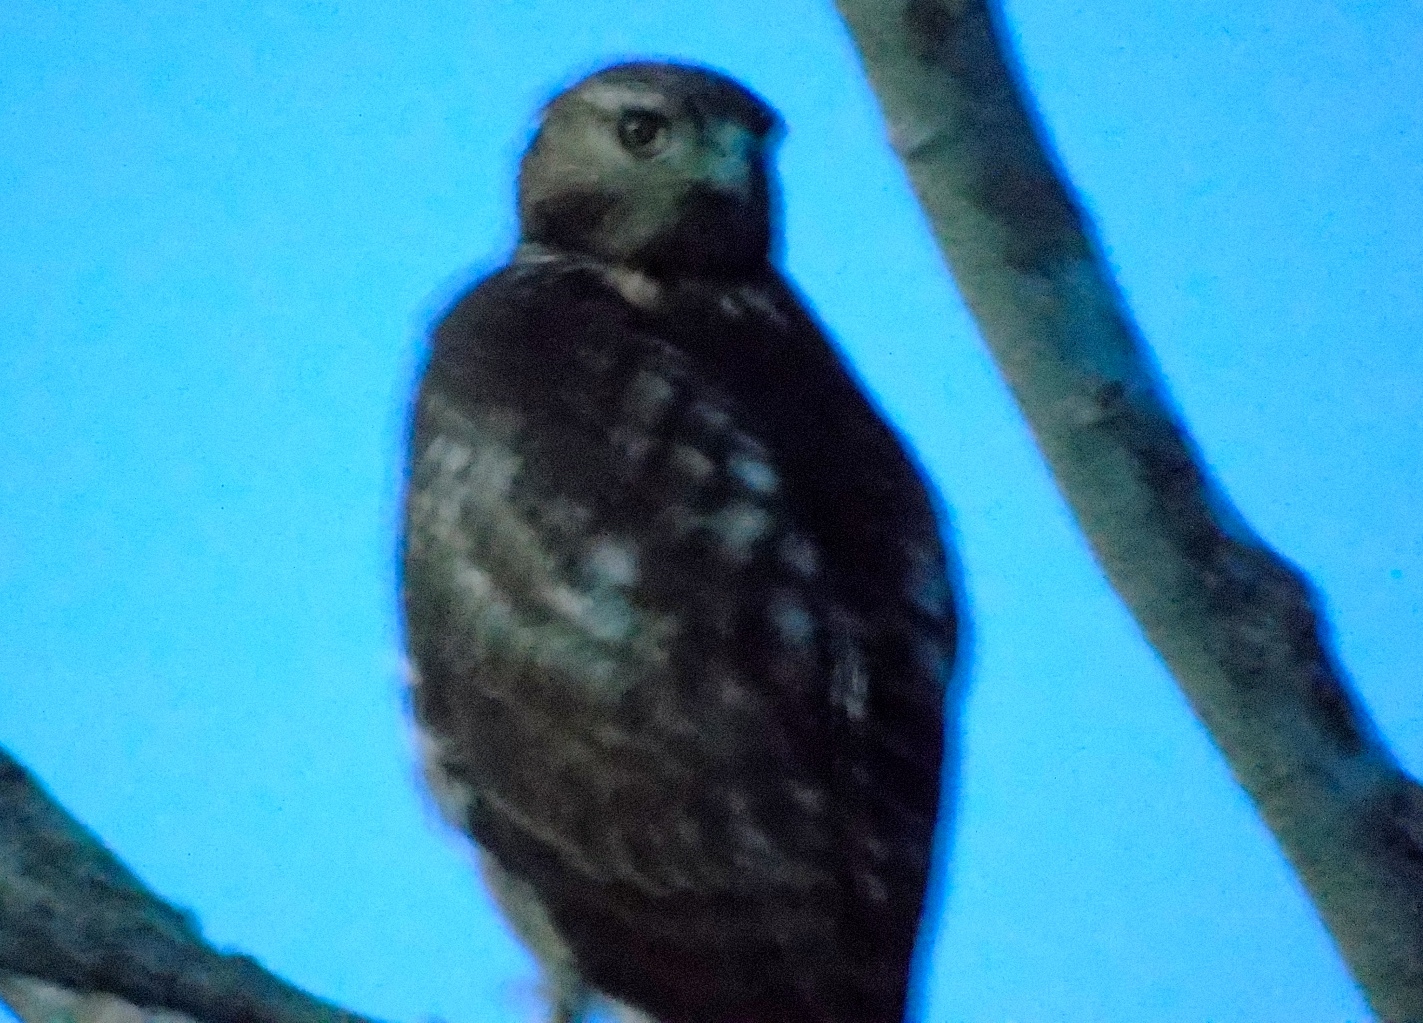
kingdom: Animalia
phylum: Chordata
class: Aves
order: Accipitriformes
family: Accipitridae
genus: Buteo
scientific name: Buteo jamaicensis
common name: Red-tailed hawk
